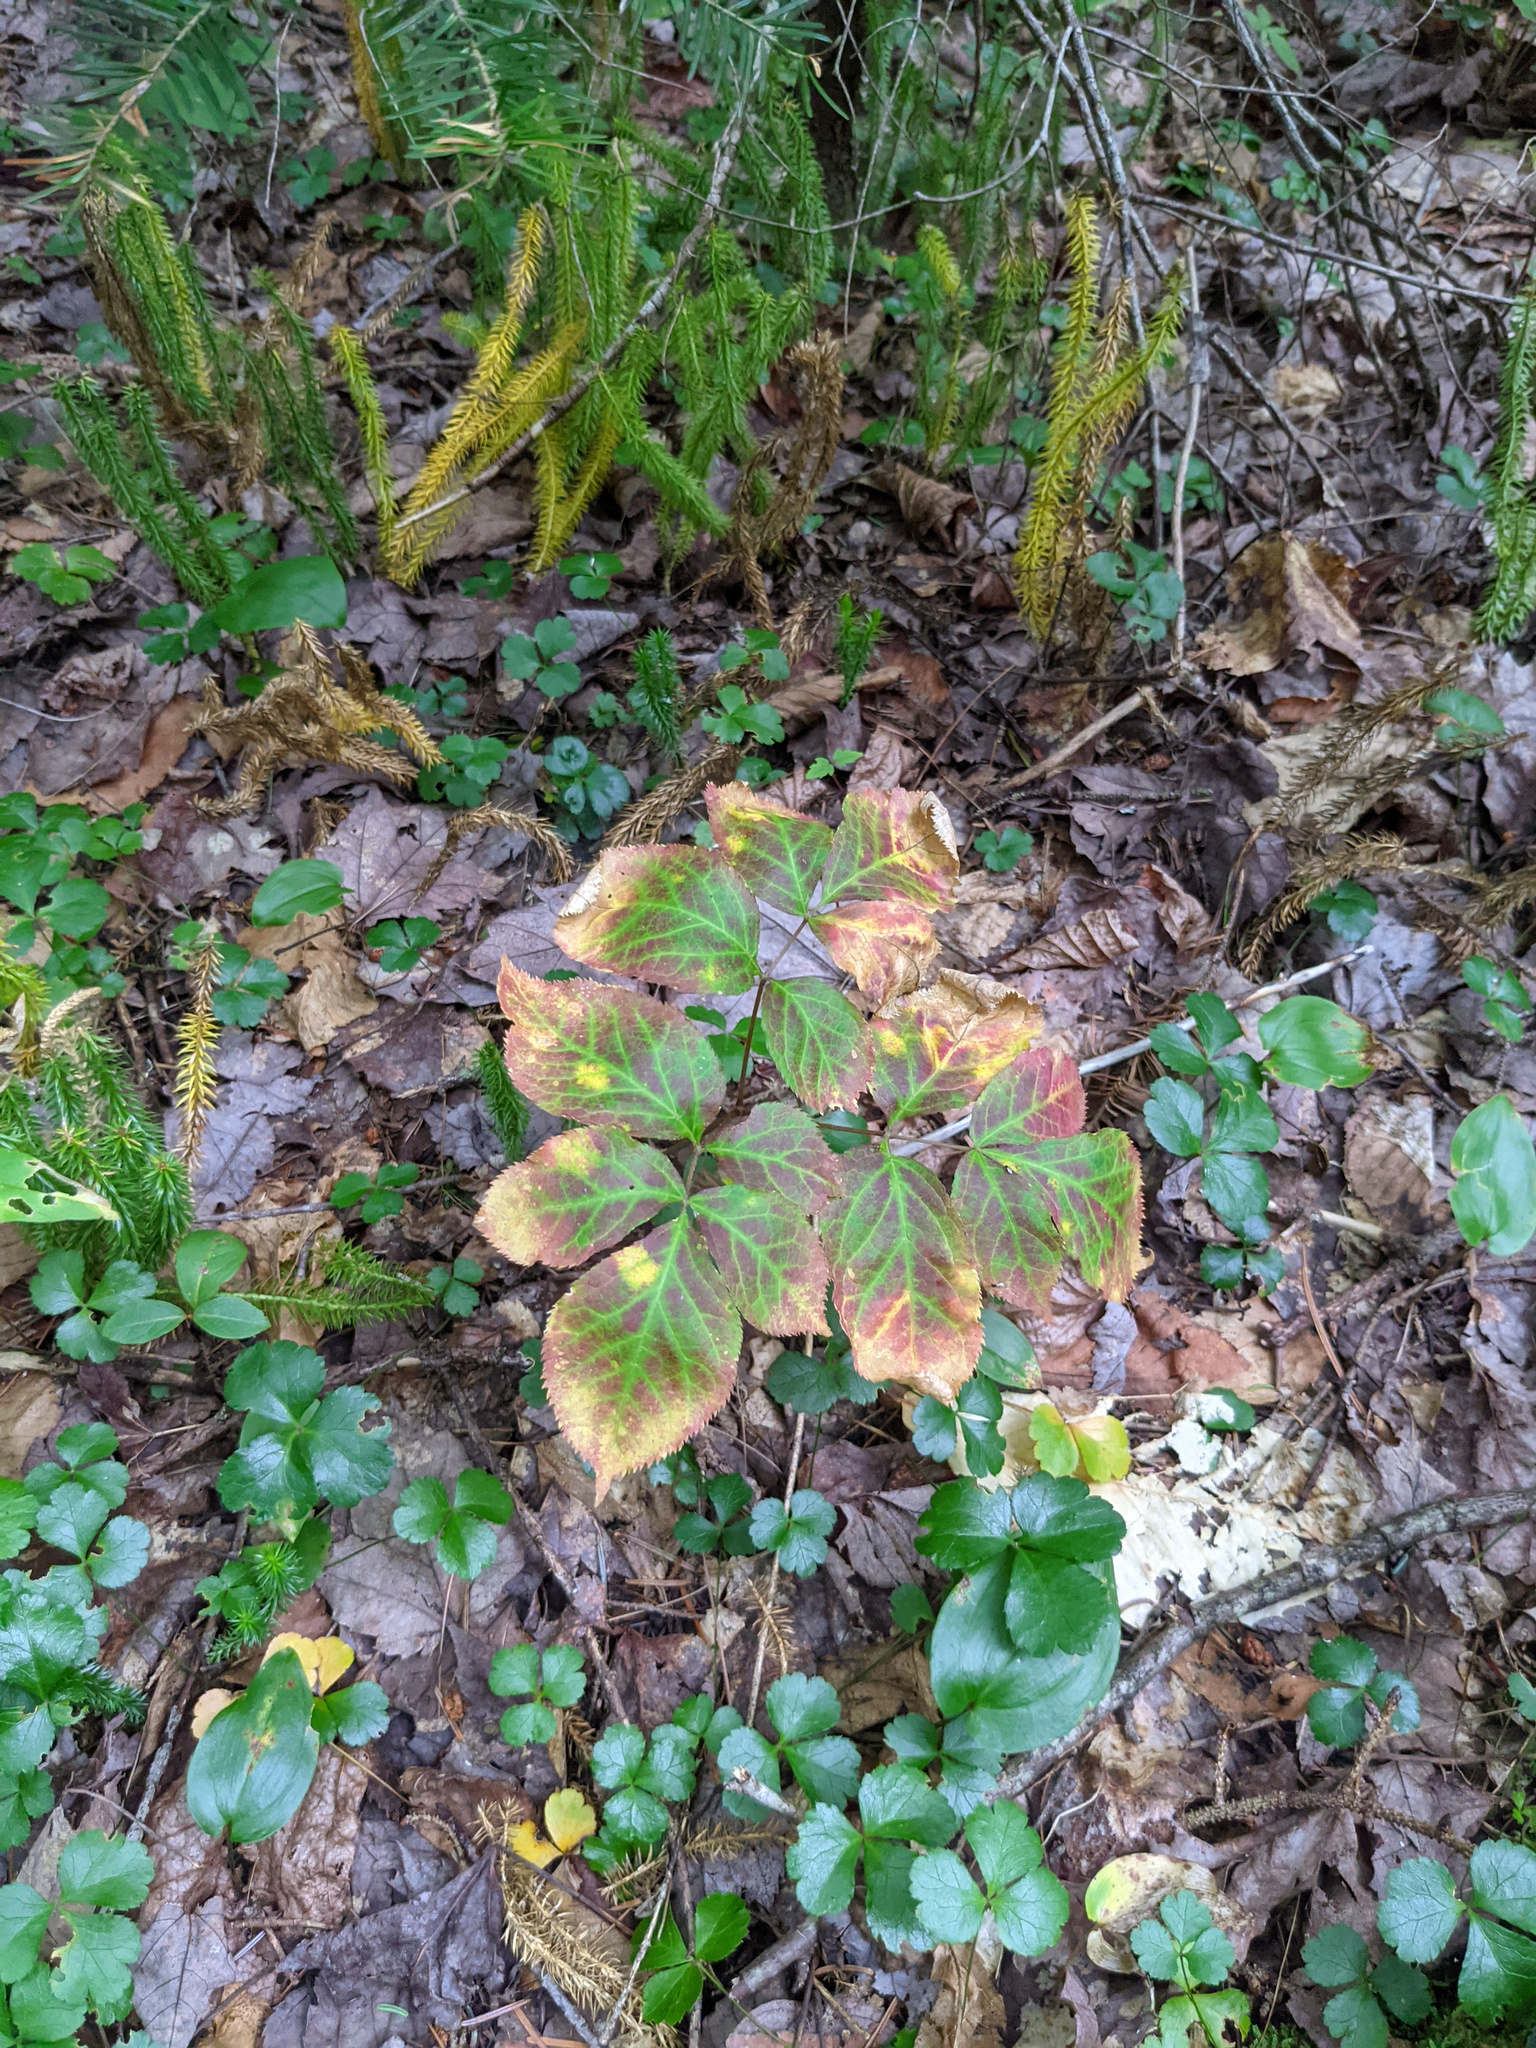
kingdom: Plantae
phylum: Tracheophyta
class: Magnoliopsida
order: Apiales
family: Araliaceae
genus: Aralia
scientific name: Aralia nudicaulis
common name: Wild sarsaparilla
